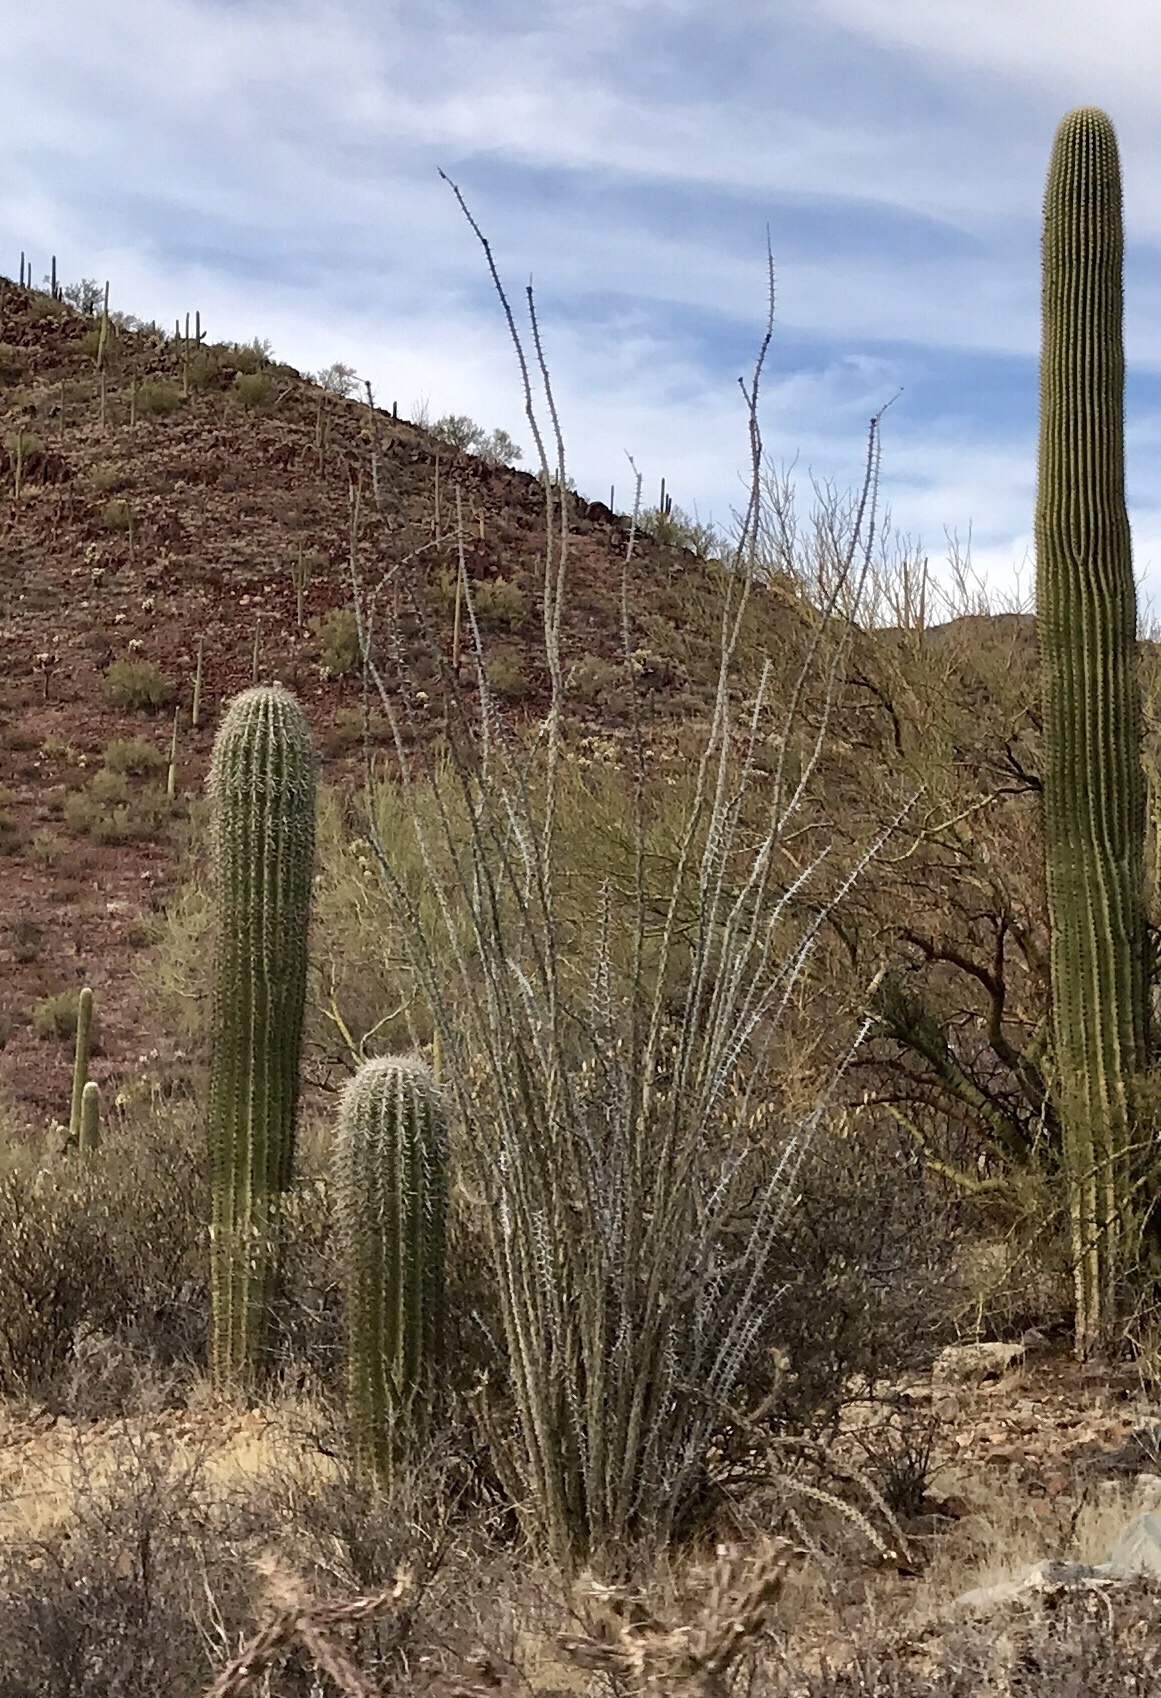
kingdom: Plantae
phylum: Tracheophyta
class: Magnoliopsida
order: Ericales
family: Fouquieriaceae
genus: Fouquieria
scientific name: Fouquieria splendens
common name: Vine-cactus
